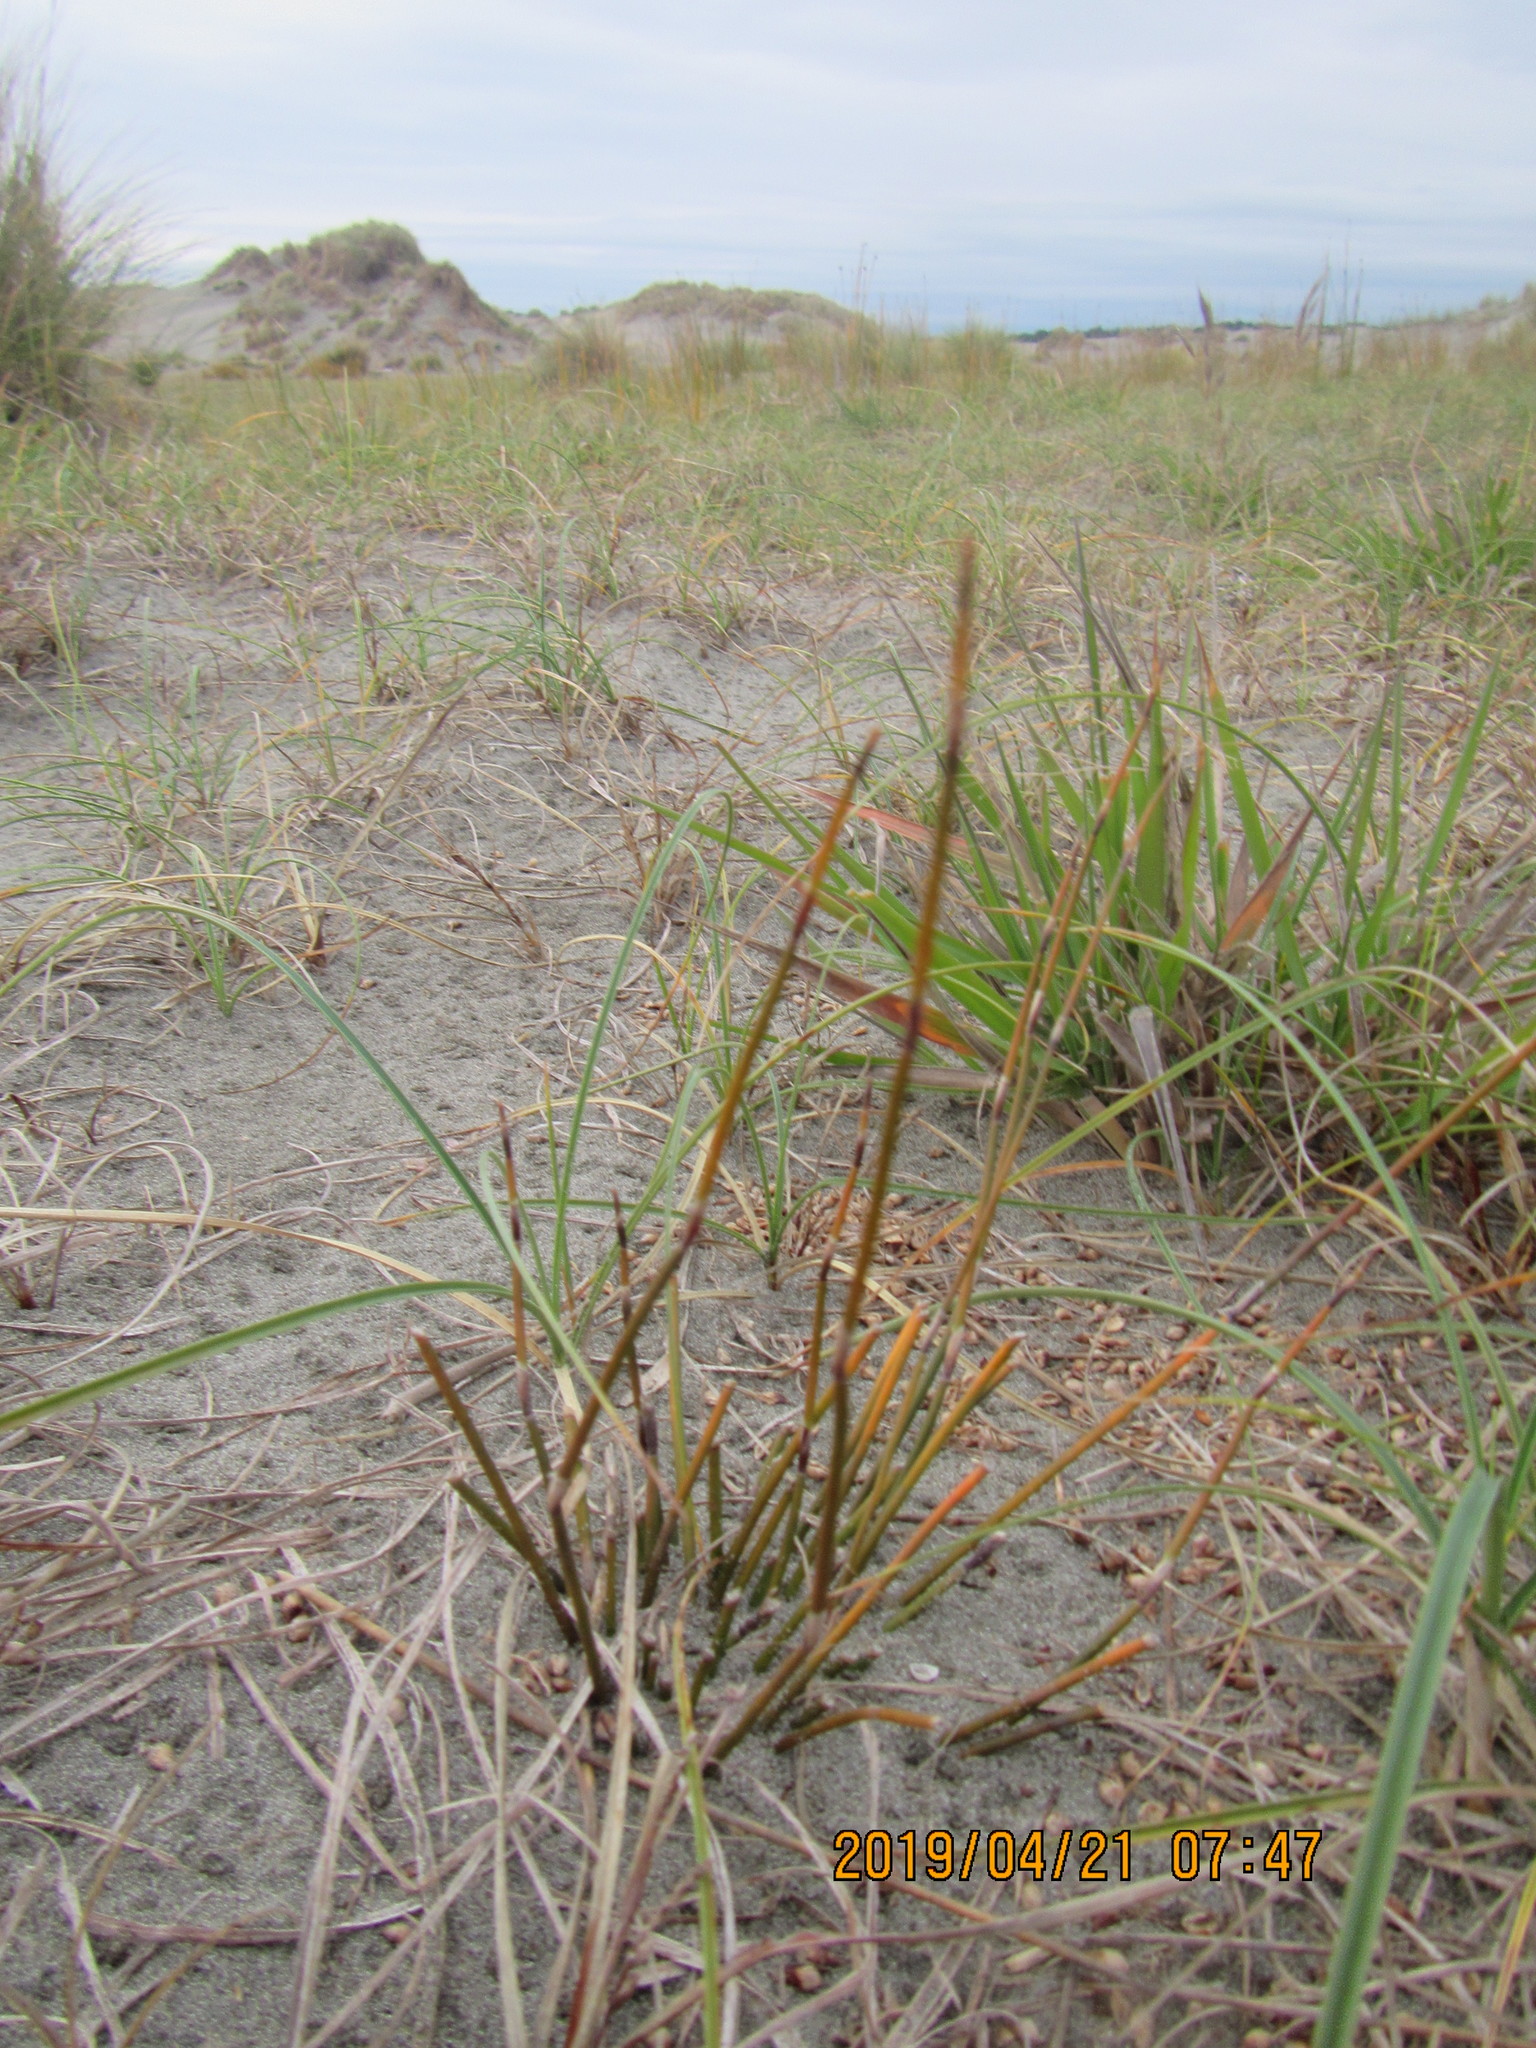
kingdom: Plantae
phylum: Tracheophyta
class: Liliopsida
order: Poales
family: Restionaceae
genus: Apodasmia
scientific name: Apodasmia similis
